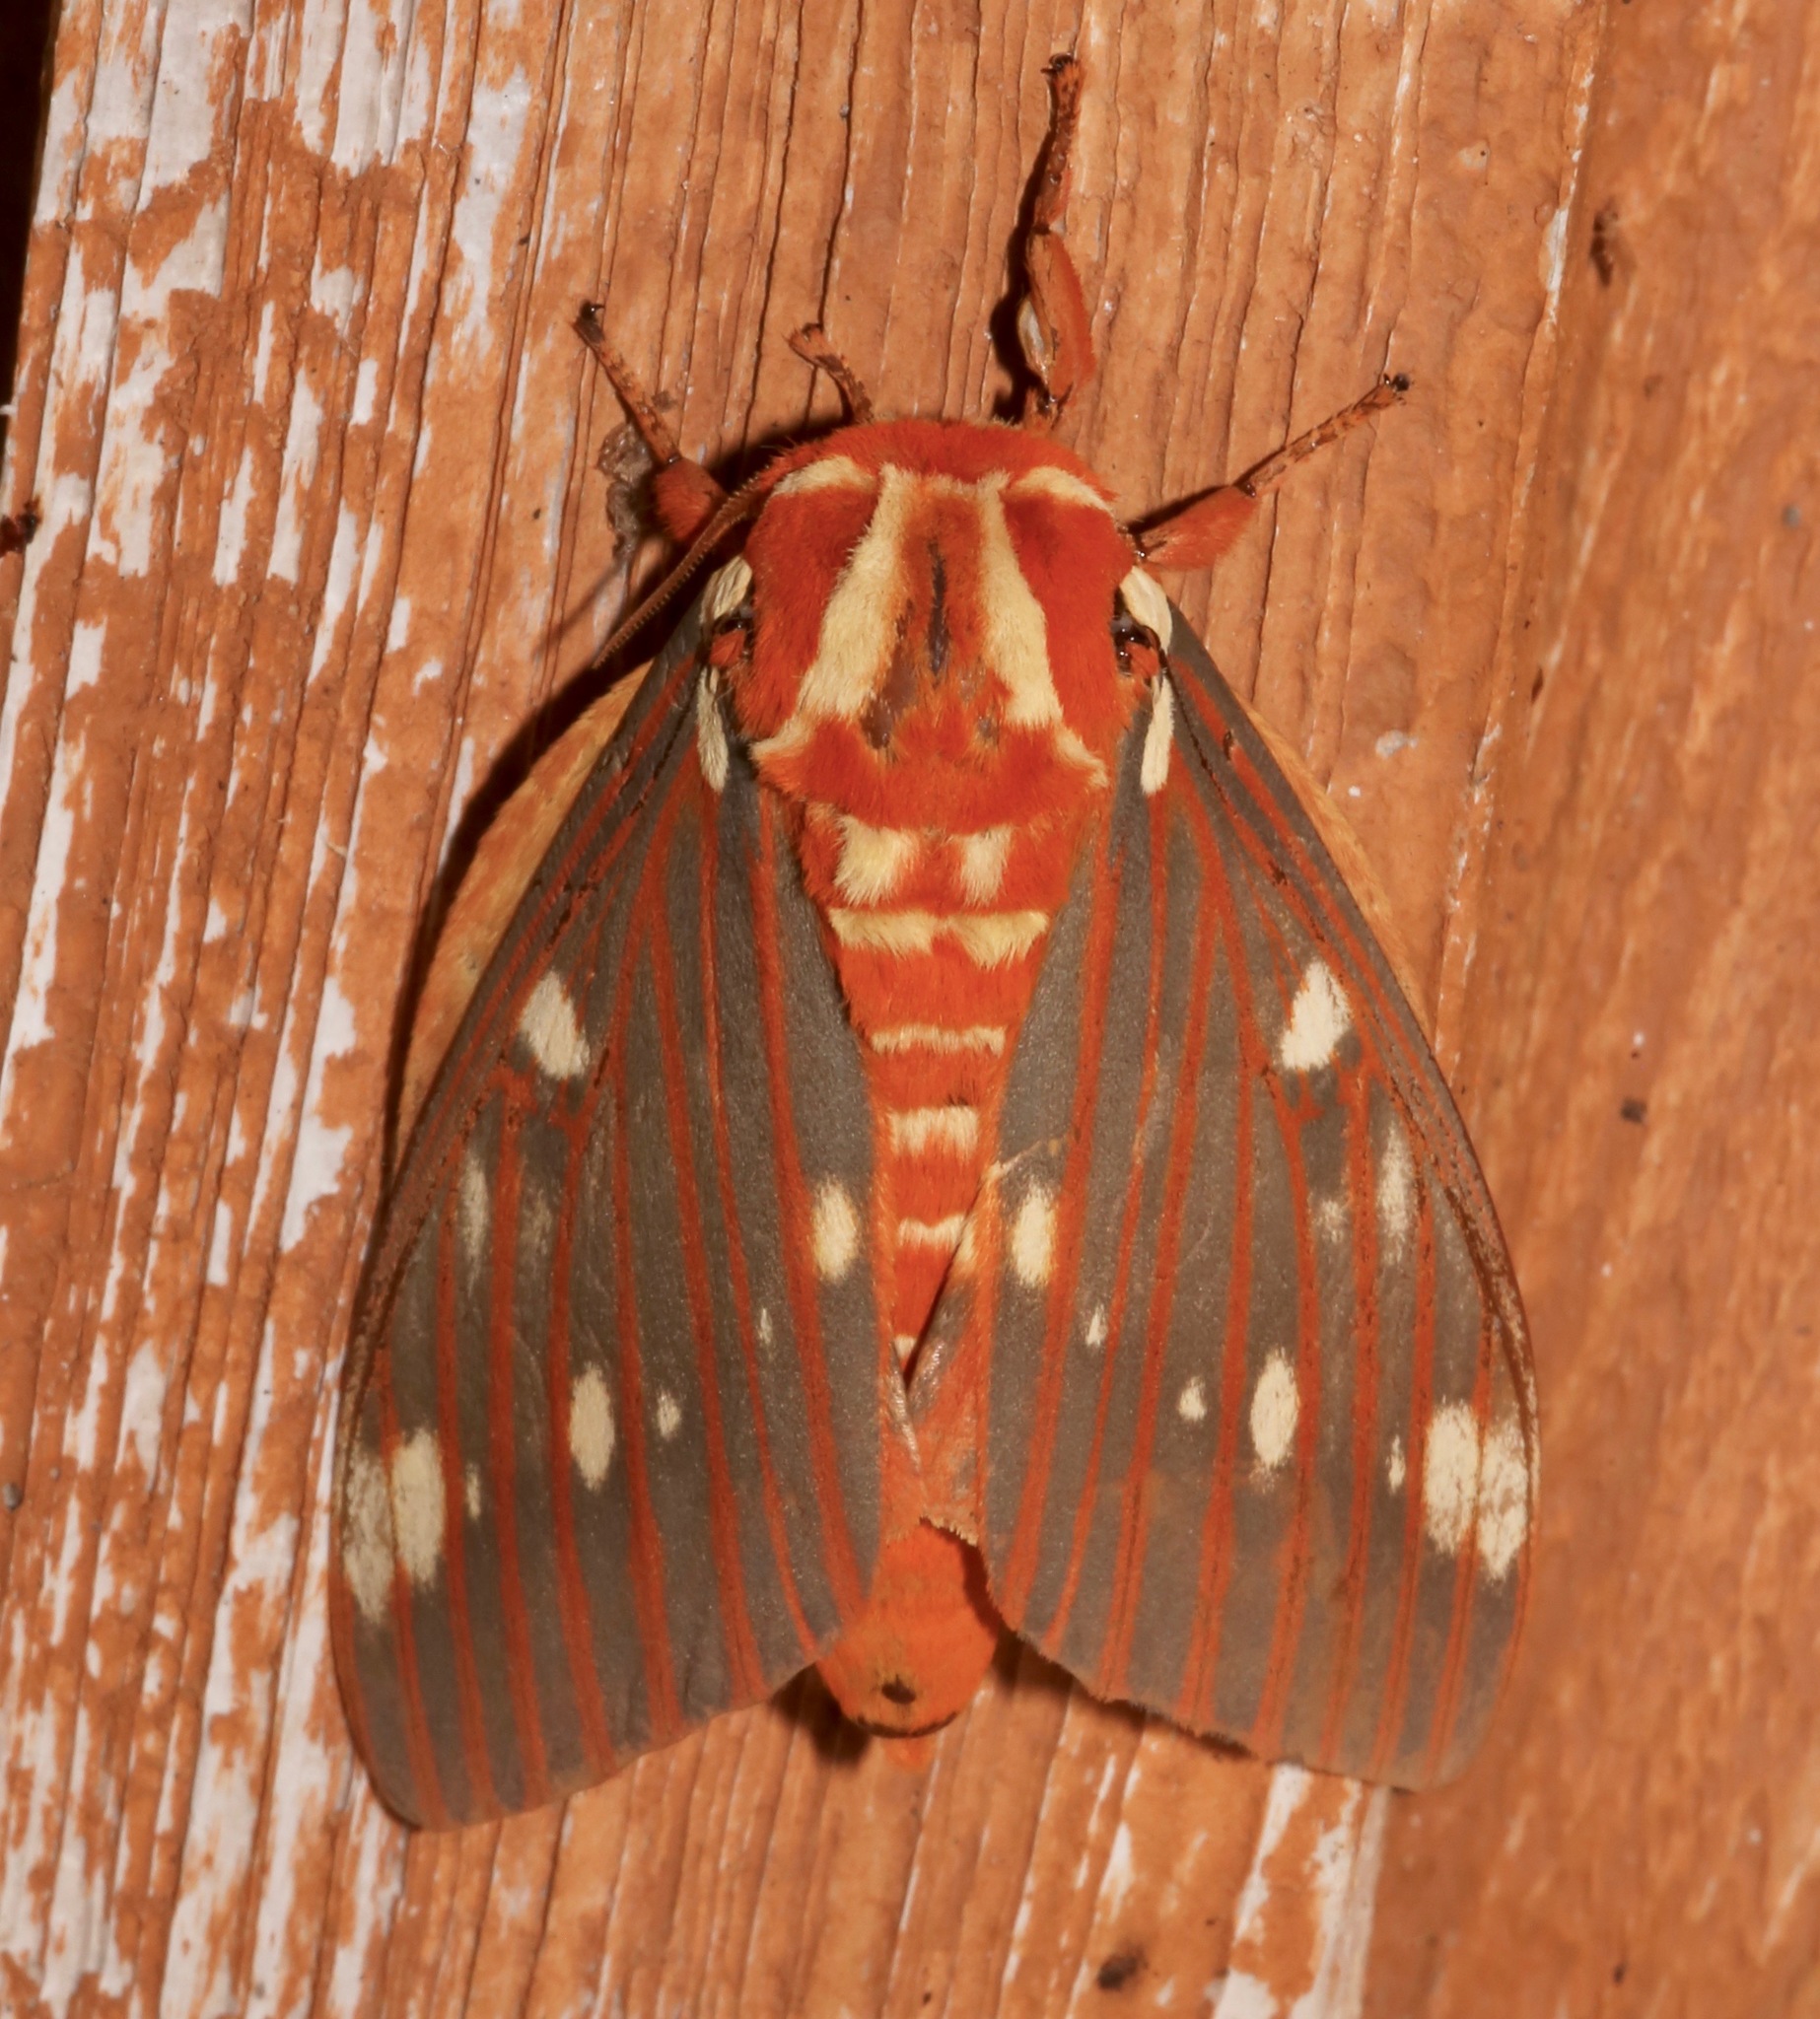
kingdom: Animalia
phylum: Arthropoda
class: Insecta
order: Lepidoptera
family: Saturniidae
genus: Citheronia
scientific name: Citheronia regalis
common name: Hickory horned devil
